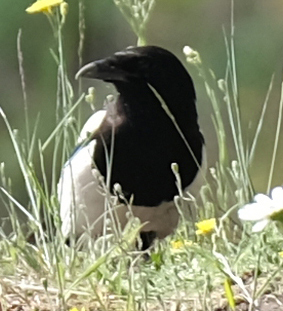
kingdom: Animalia
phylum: Chordata
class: Aves
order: Passeriformes
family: Corvidae
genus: Pica
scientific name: Pica hudsonia
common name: Black-billed magpie
